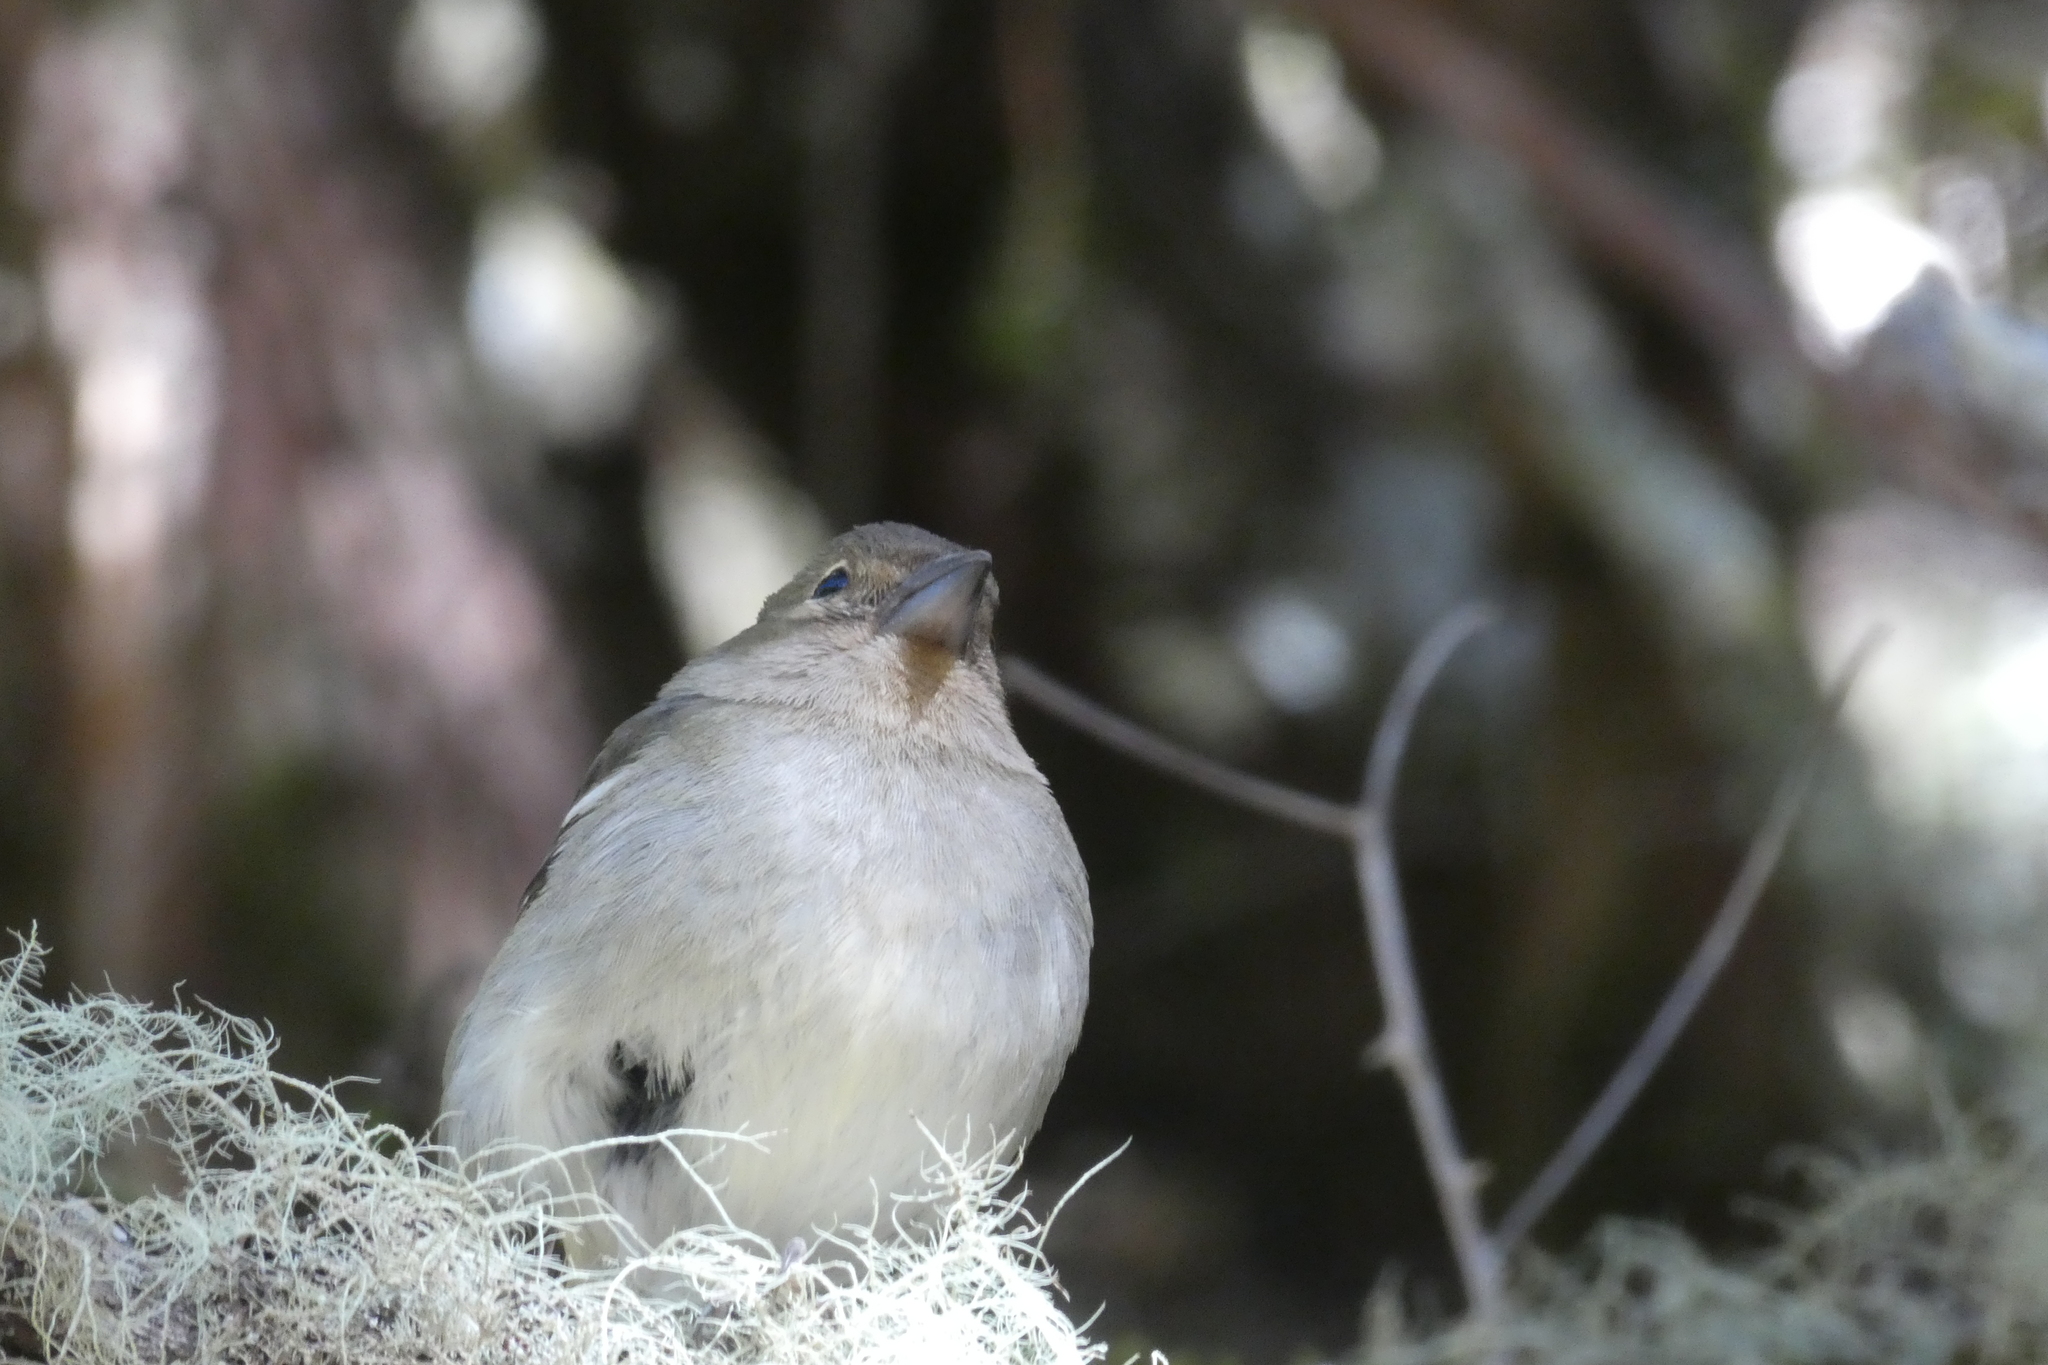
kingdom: Animalia
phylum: Chordata
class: Aves
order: Passeriformes
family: Fringillidae
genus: Fringilla
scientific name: Fringilla maderensis
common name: Madeira chaffinch
